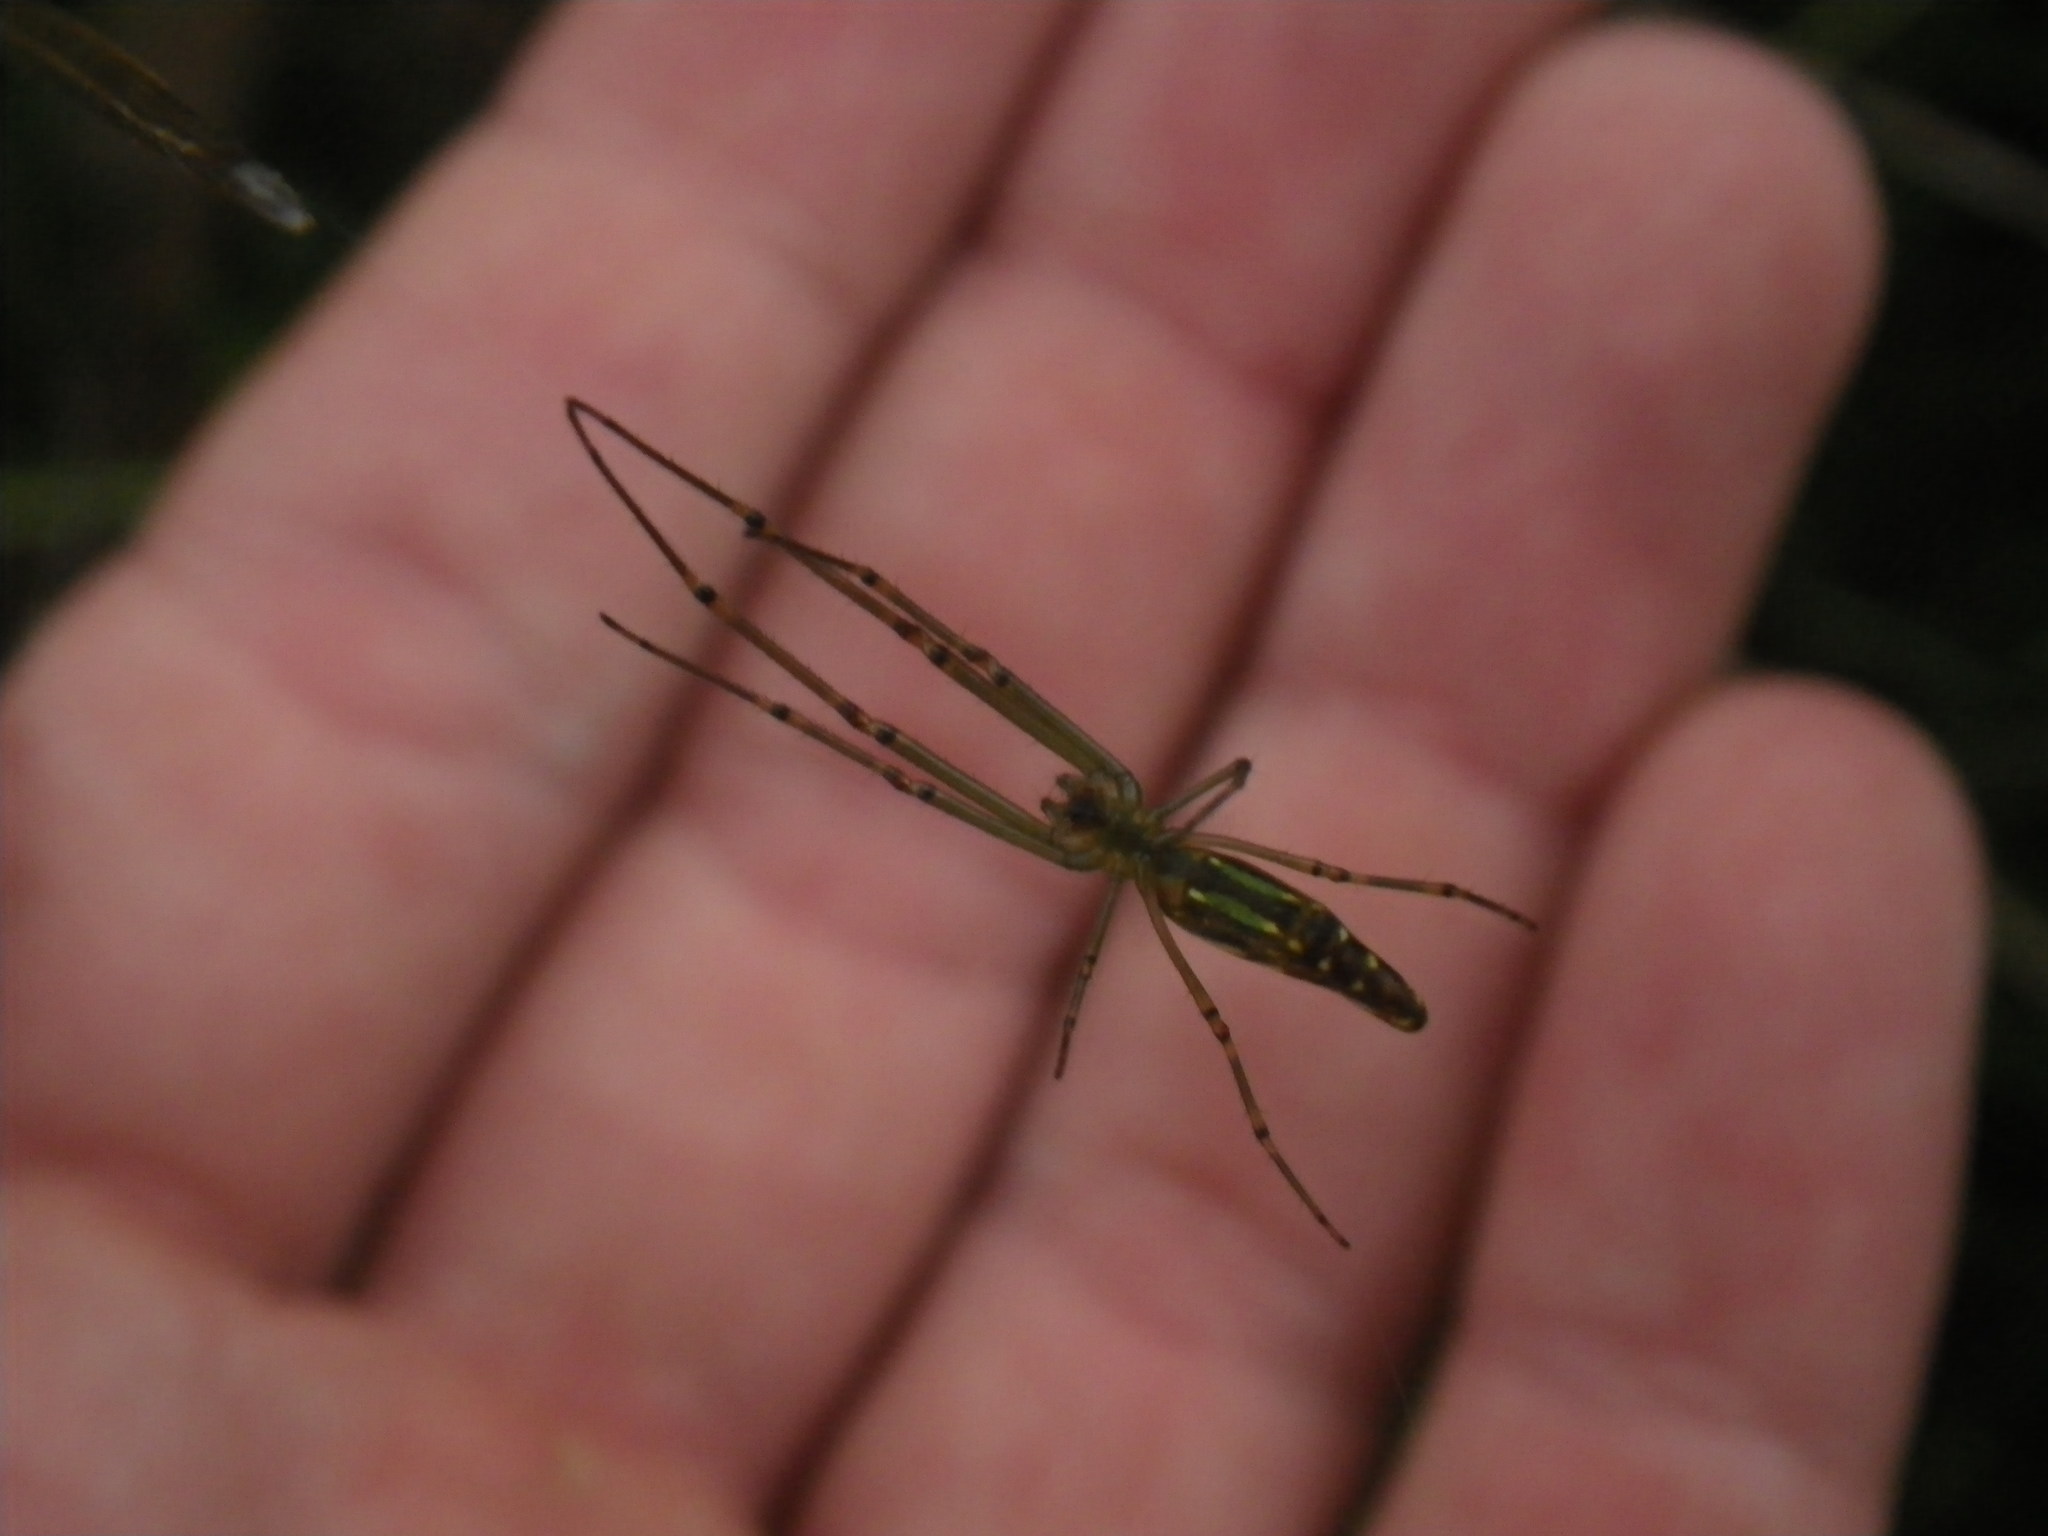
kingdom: Animalia
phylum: Arthropoda
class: Arachnida
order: Araneae
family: Tetragnathidae
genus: Leucauge
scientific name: Leucauge decorata
